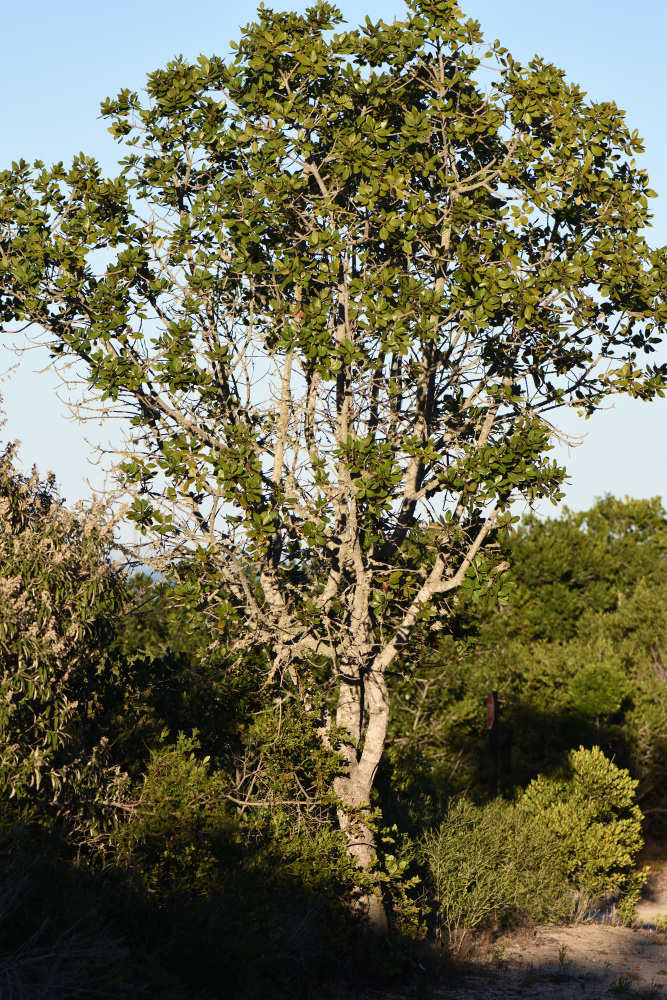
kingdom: Plantae
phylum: Tracheophyta
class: Magnoliopsida
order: Apiales
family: Pittosporaceae
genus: Pittosporum
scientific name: Pittosporum viridiflorum
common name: Cape cheesewood
